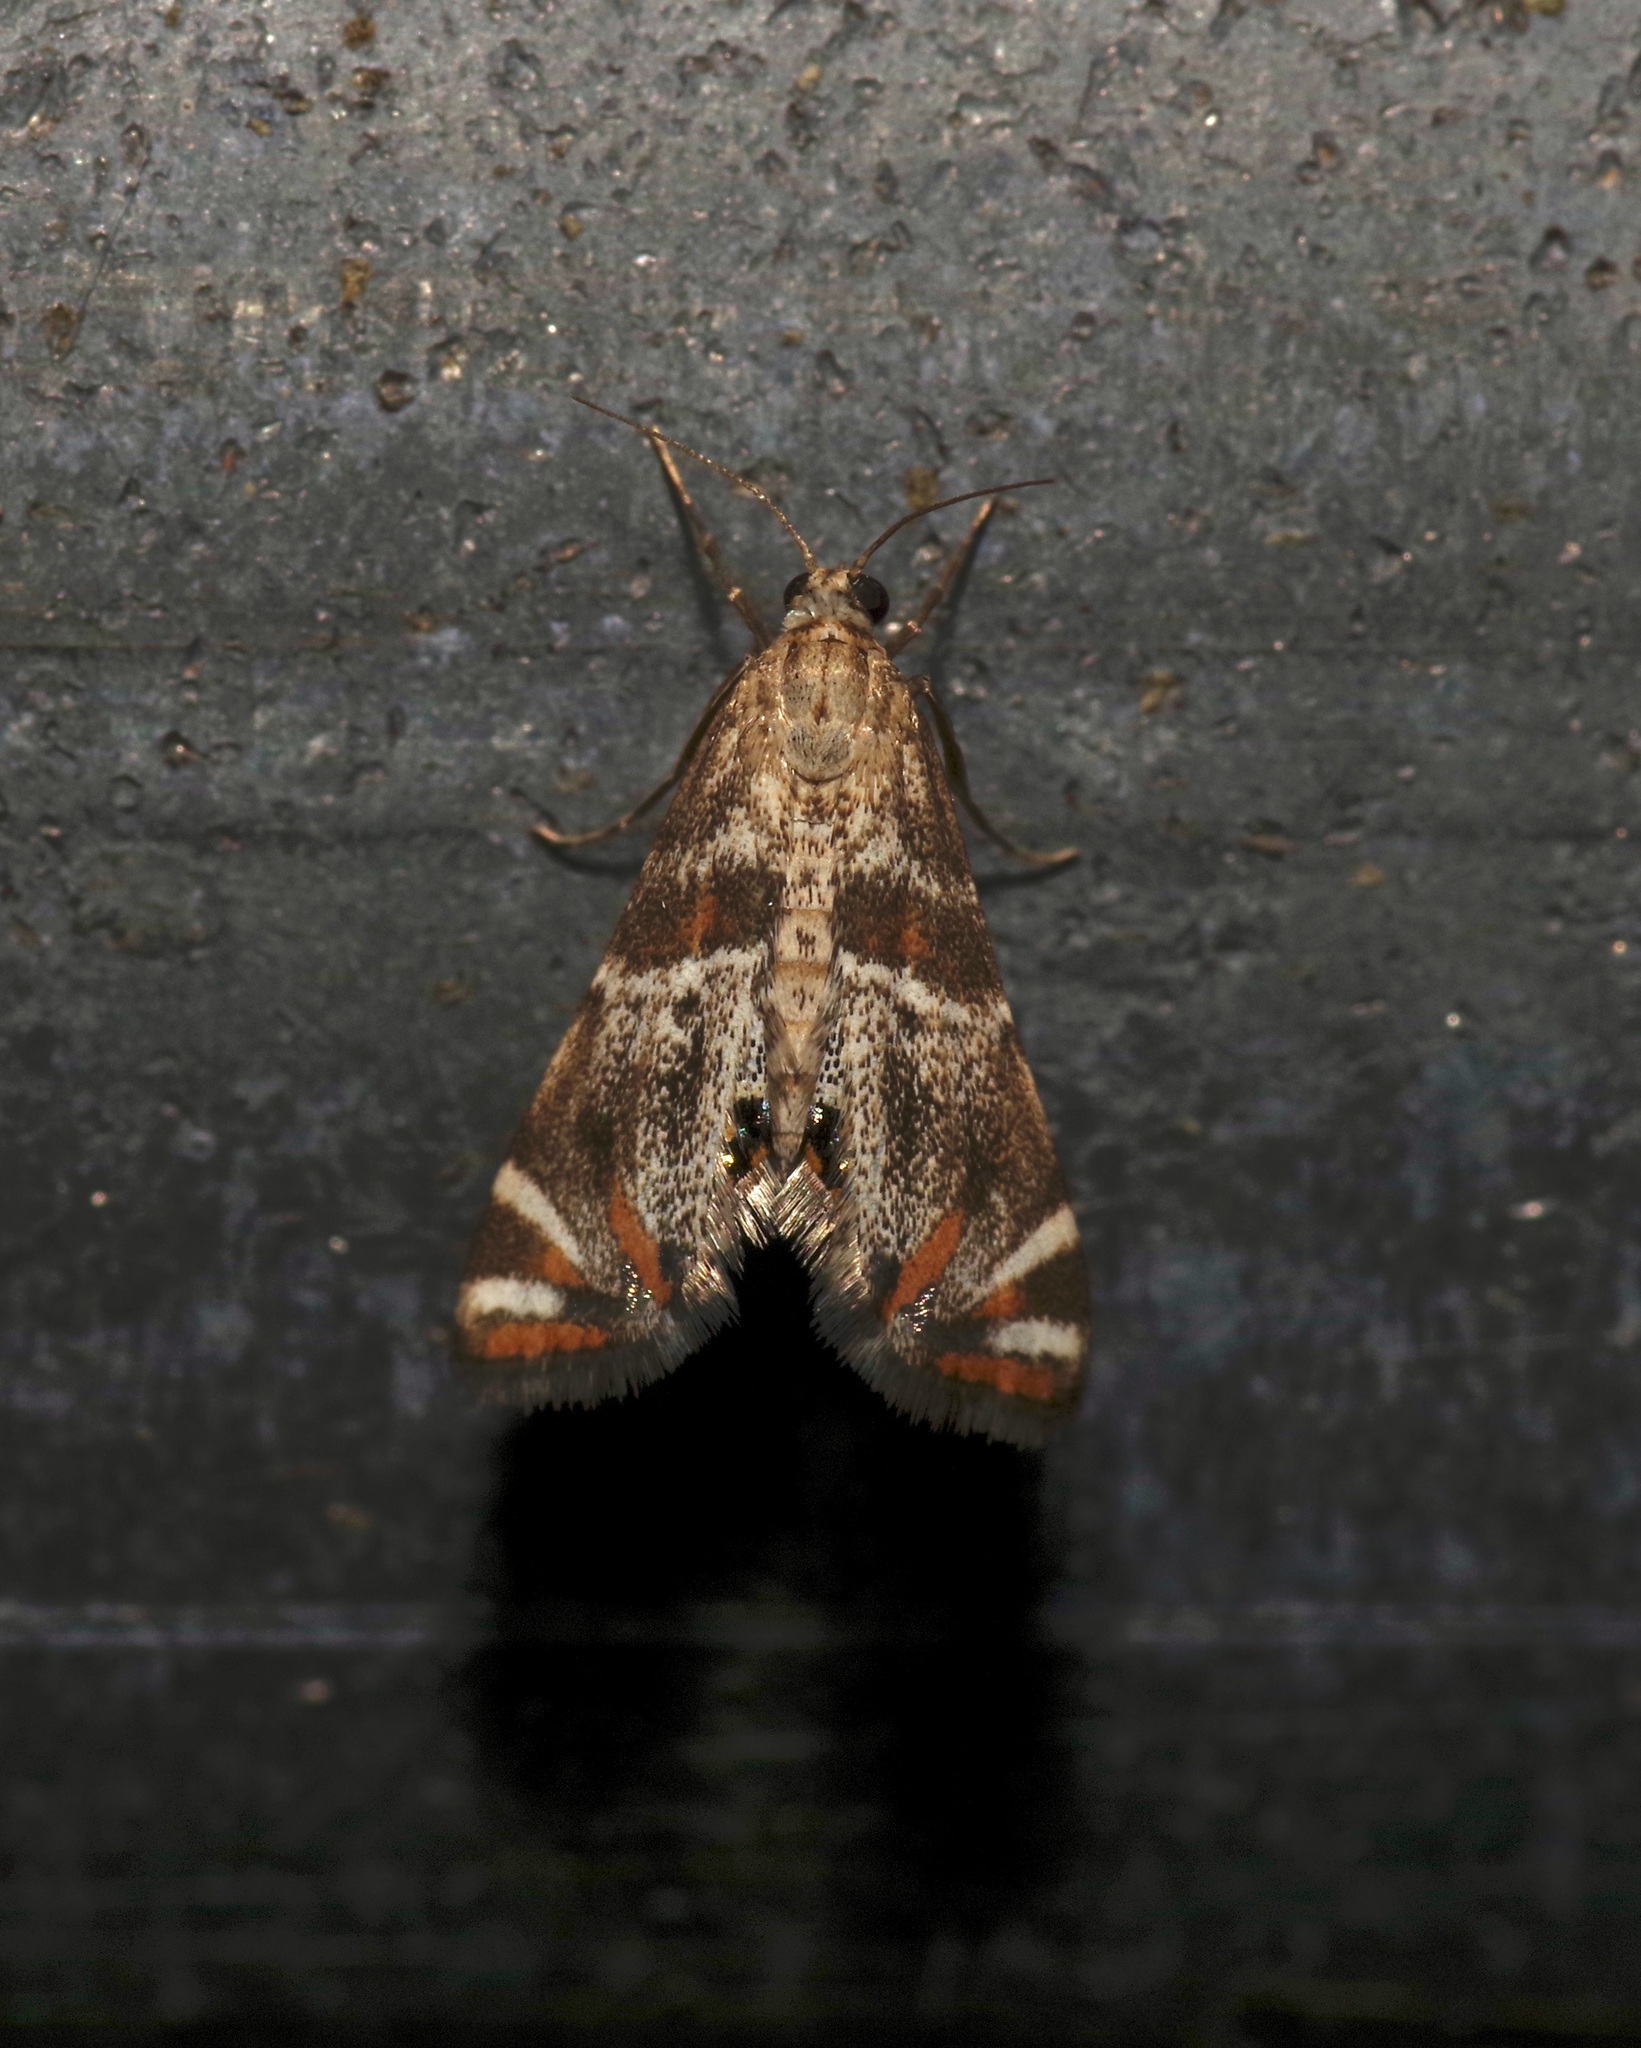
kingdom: Animalia
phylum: Arthropoda
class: Insecta
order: Lepidoptera
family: Crambidae
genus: Petrophila
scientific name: Petrophila jaliscalis
